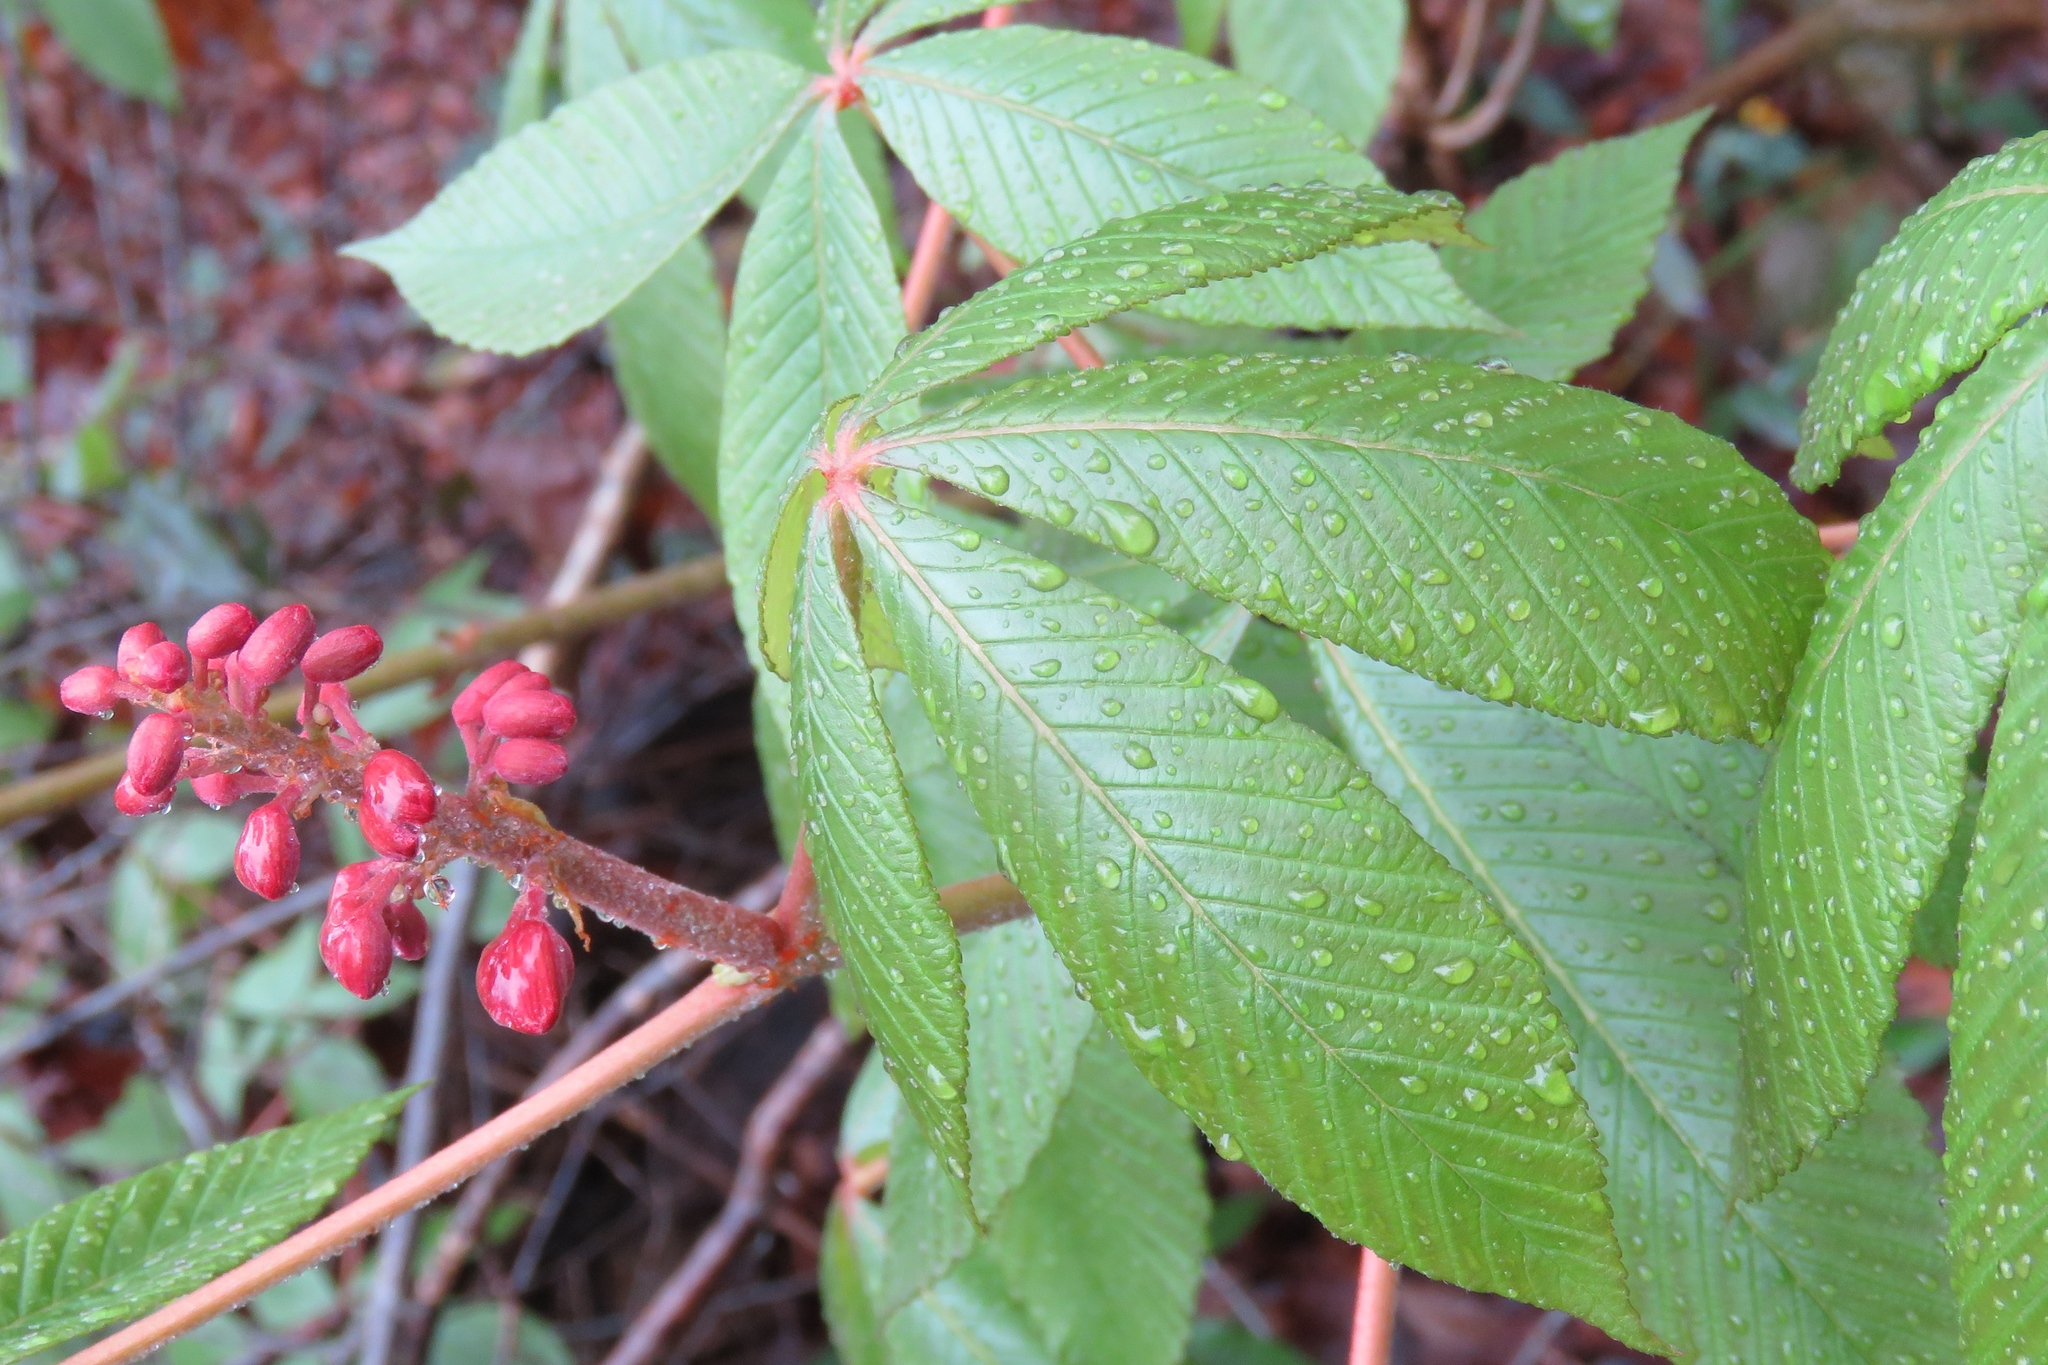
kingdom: Plantae
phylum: Tracheophyta
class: Magnoliopsida
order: Sapindales
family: Sapindaceae
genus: Aesculus
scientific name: Aesculus pavia
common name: Red buckeye
